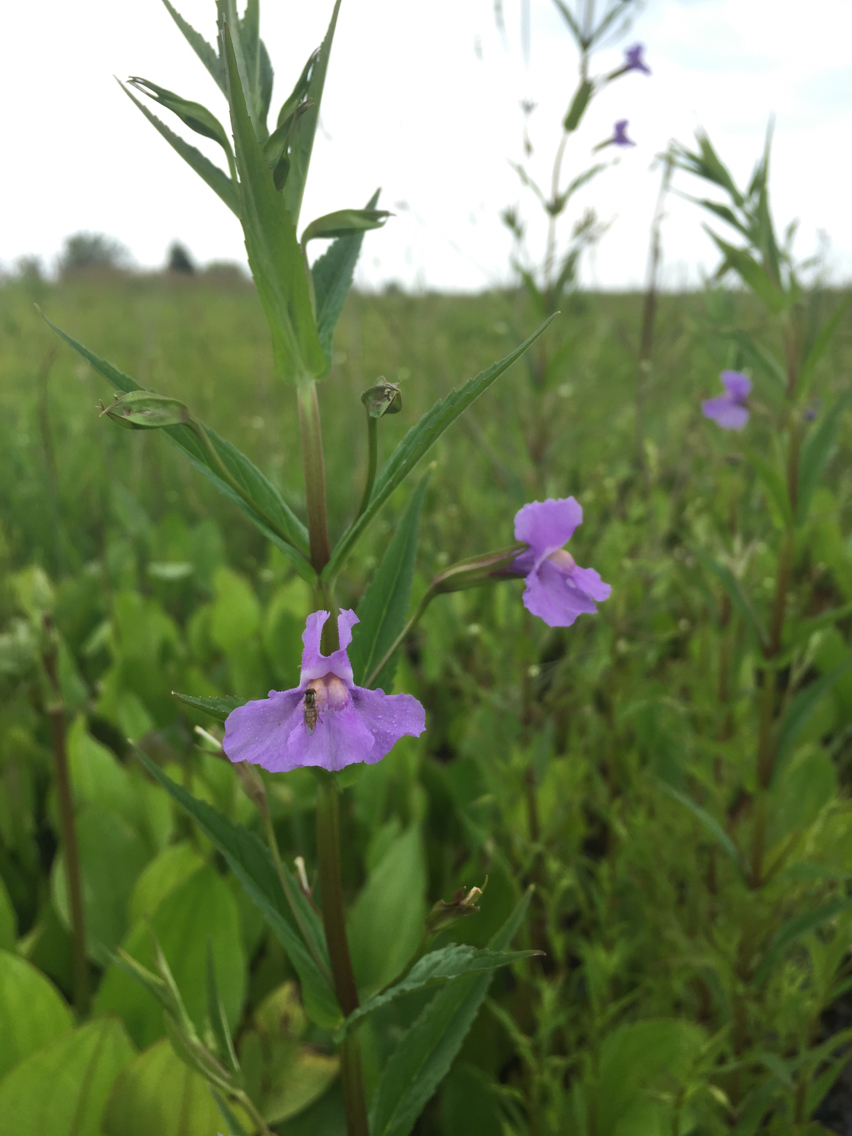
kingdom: Plantae
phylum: Tracheophyta
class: Magnoliopsida
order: Lamiales
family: Phrymaceae
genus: Mimulus
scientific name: Mimulus ringens
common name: Allegheny monkeyflower
